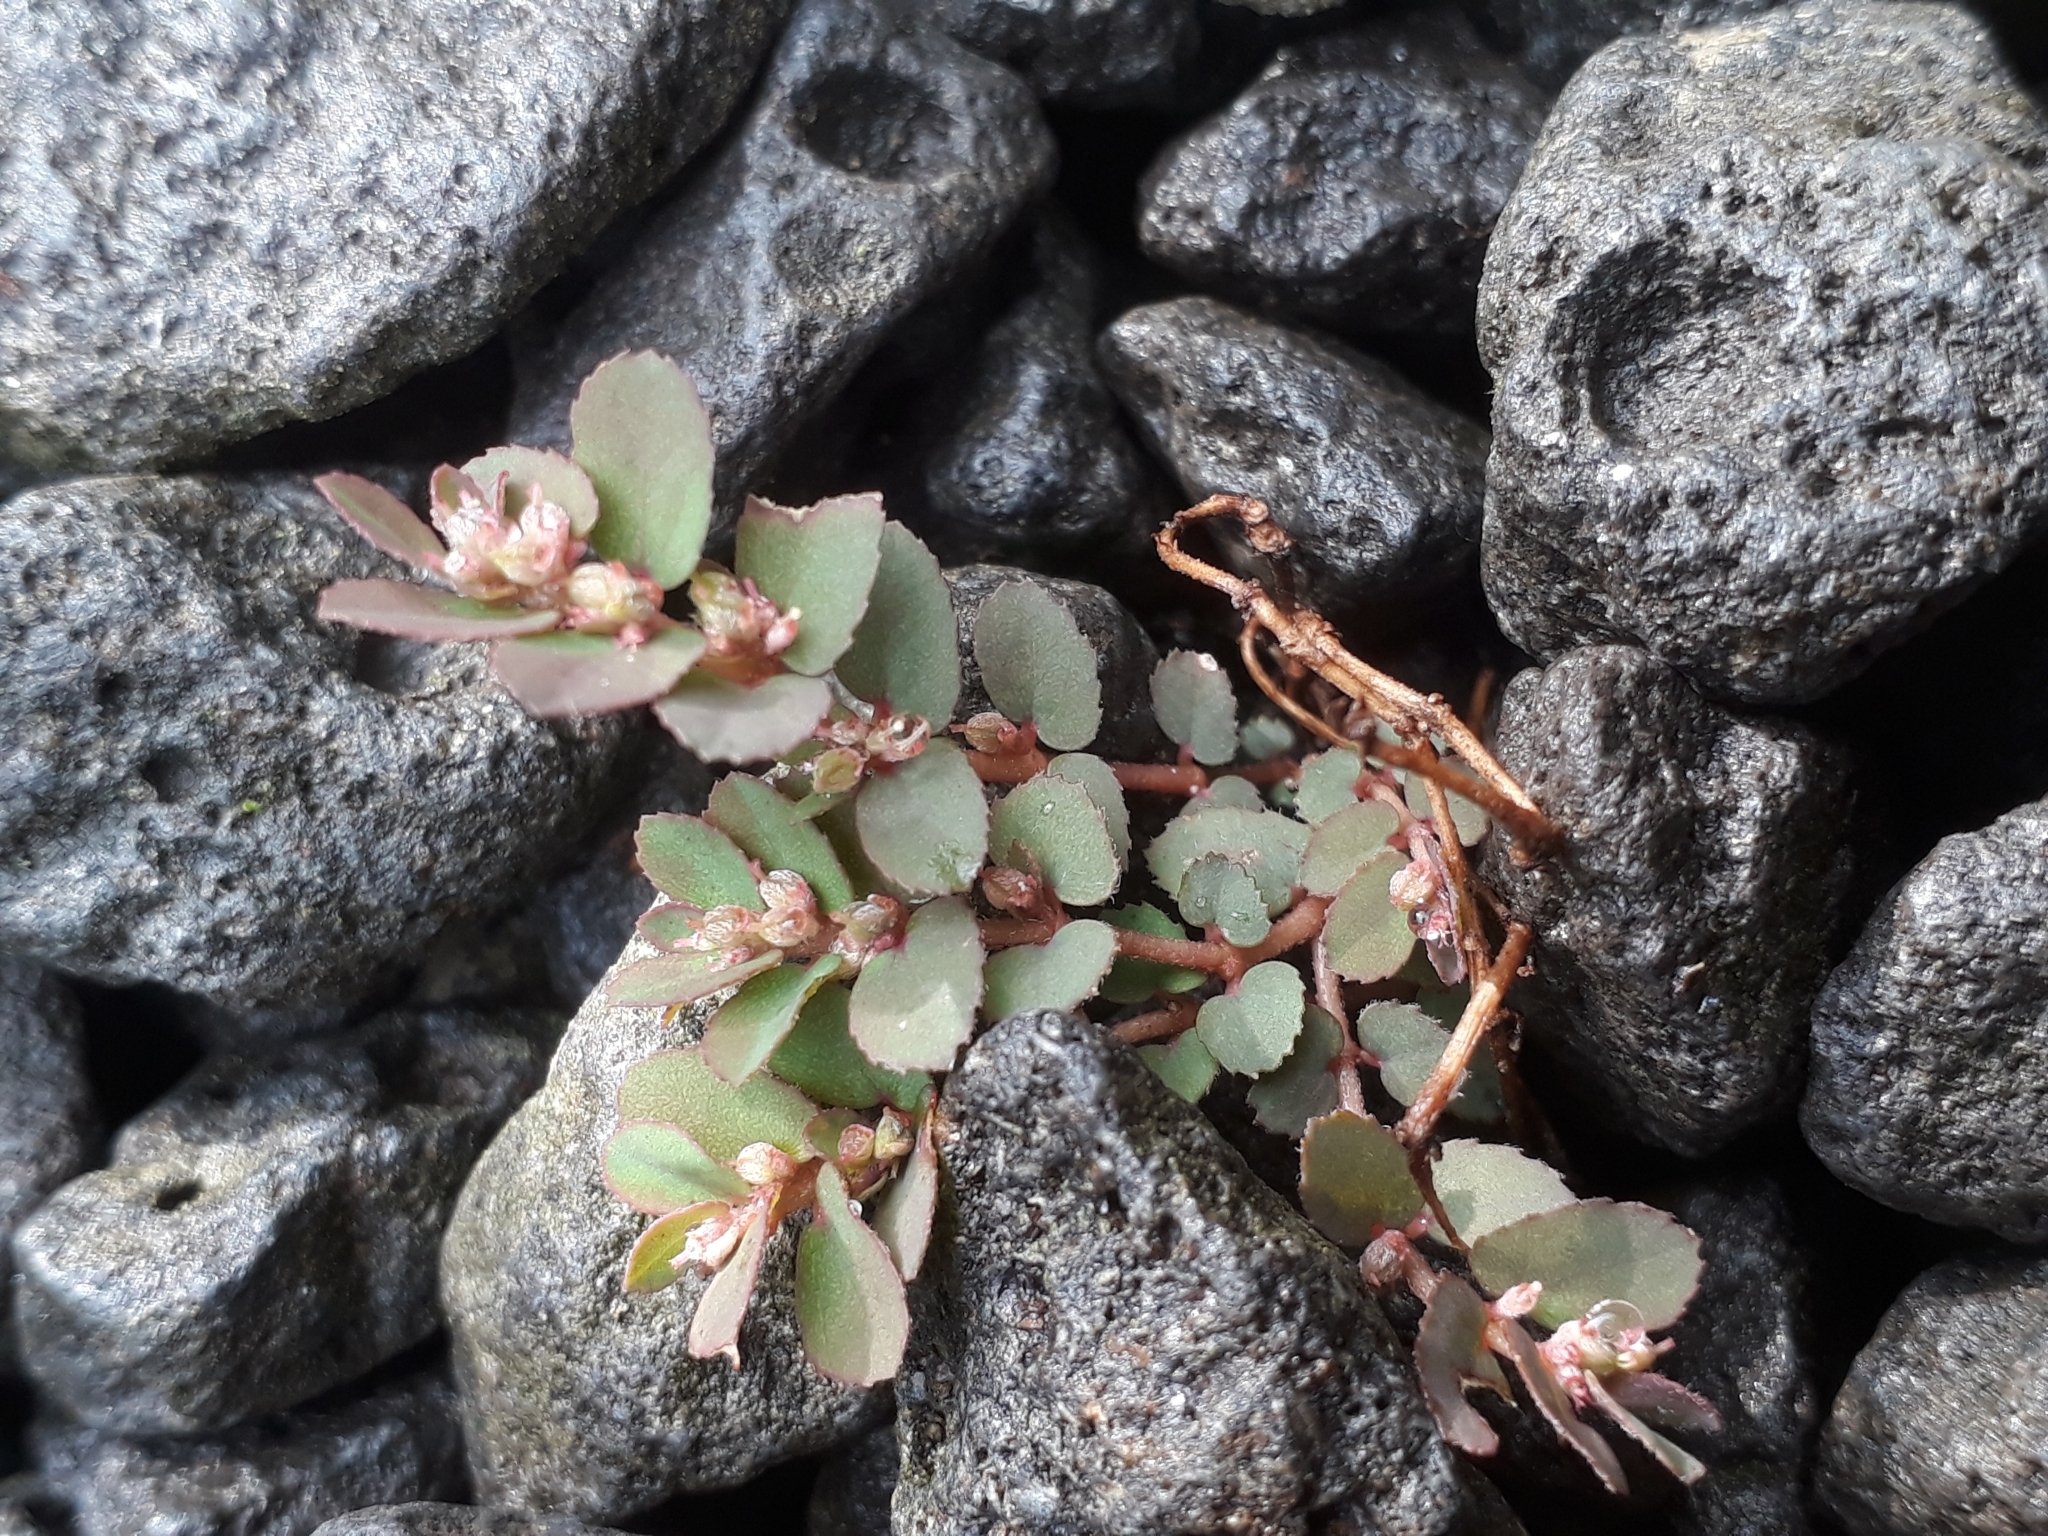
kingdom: Plantae
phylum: Tracheophyta
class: Magnoliopsida
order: Malpighiales
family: Euphorbiaceae
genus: Euphorbia
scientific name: Euphorbia thymifolia
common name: Gulf sandmat
